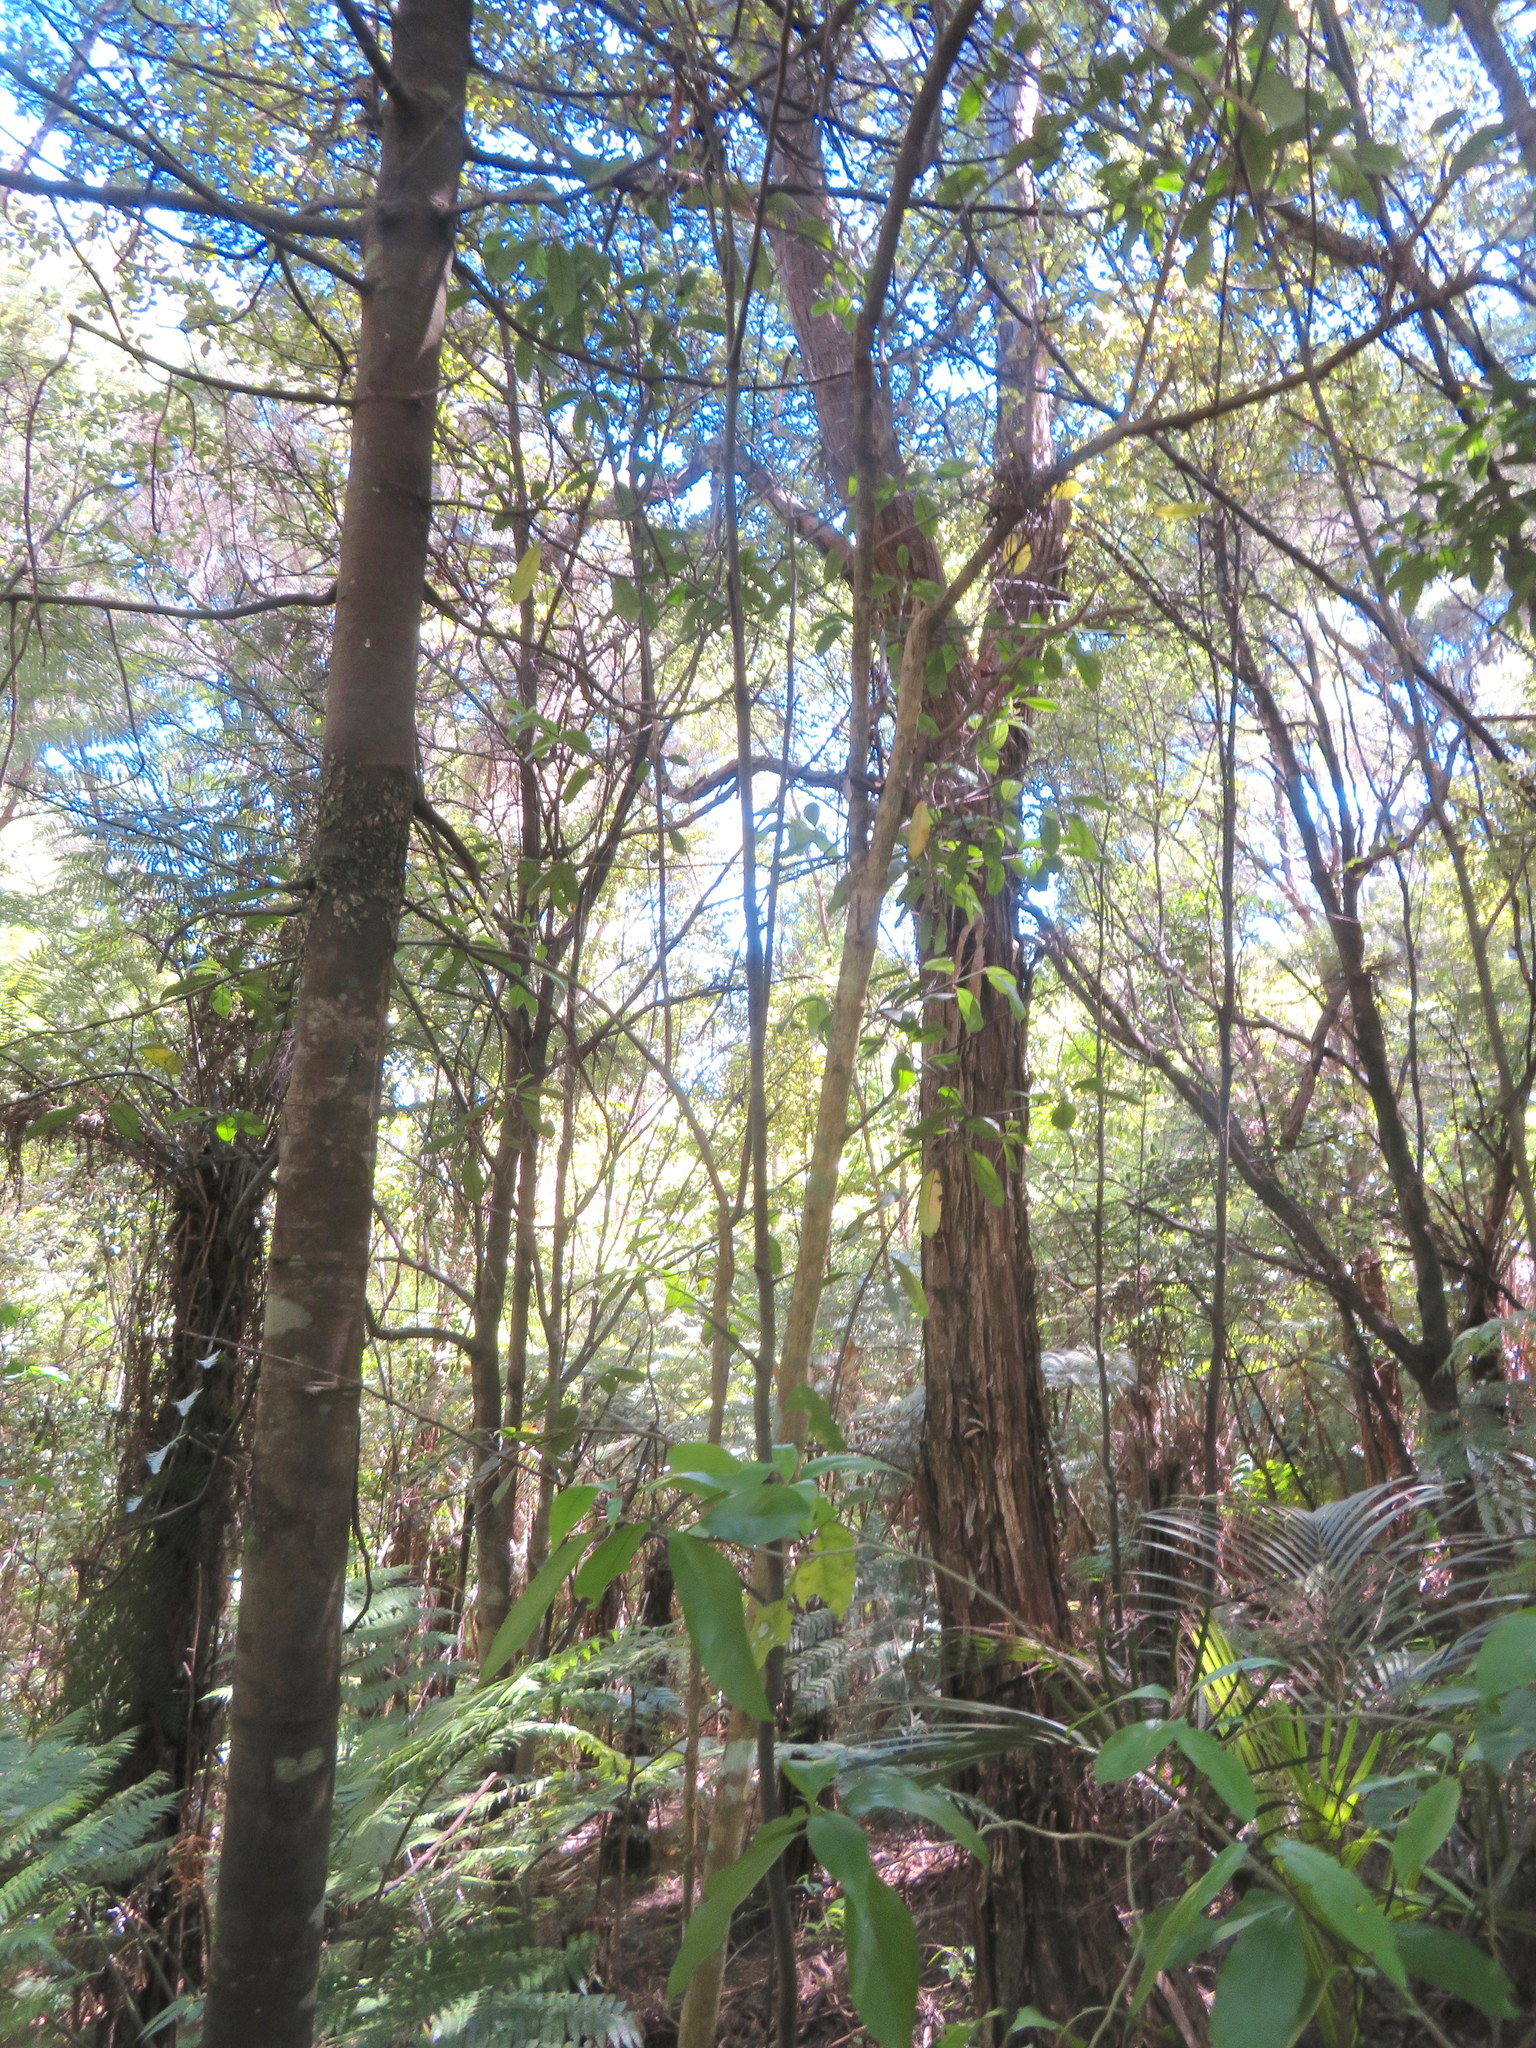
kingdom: Plantae
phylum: Tracheophyta
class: Magnoliopsida
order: Malpighiales
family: Violaceae
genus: Melicytus
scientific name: Melicytus ramiflorus
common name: Mahoe
